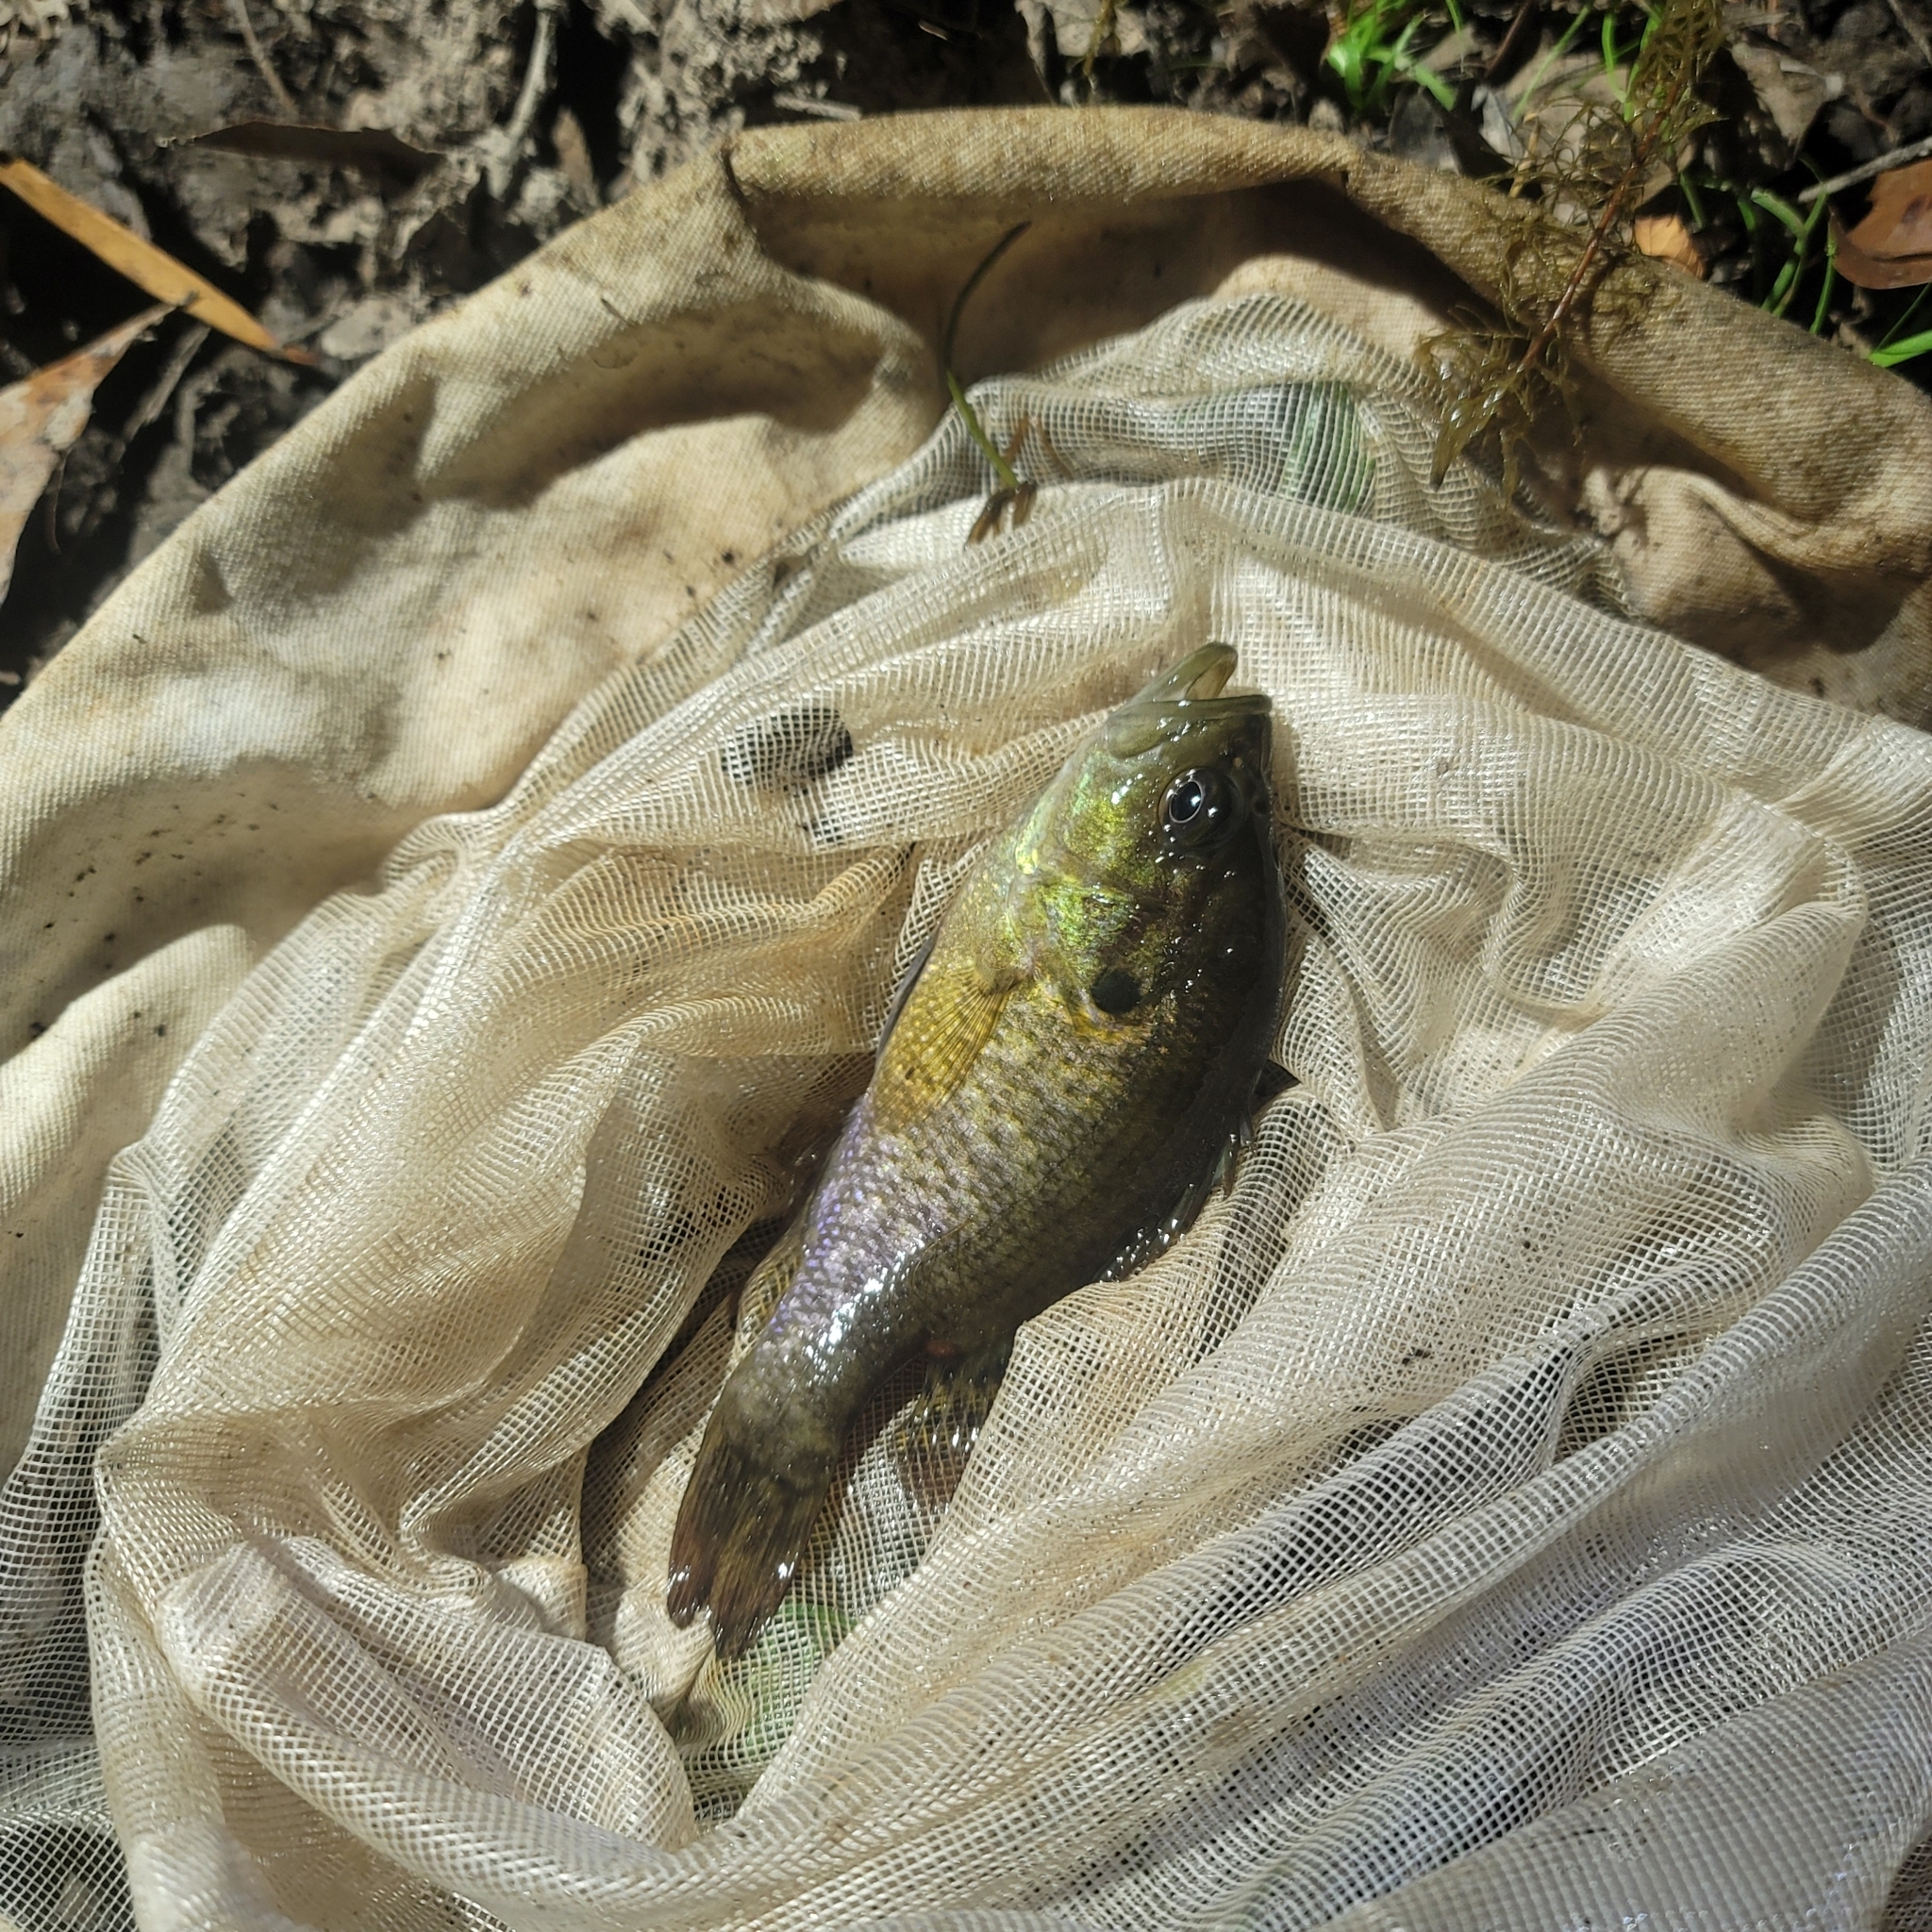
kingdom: Animalia
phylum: Chordata
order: Perciformes
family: Centrarchidae
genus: Lepomis
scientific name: Lepomis gulosus
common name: Warmouth
